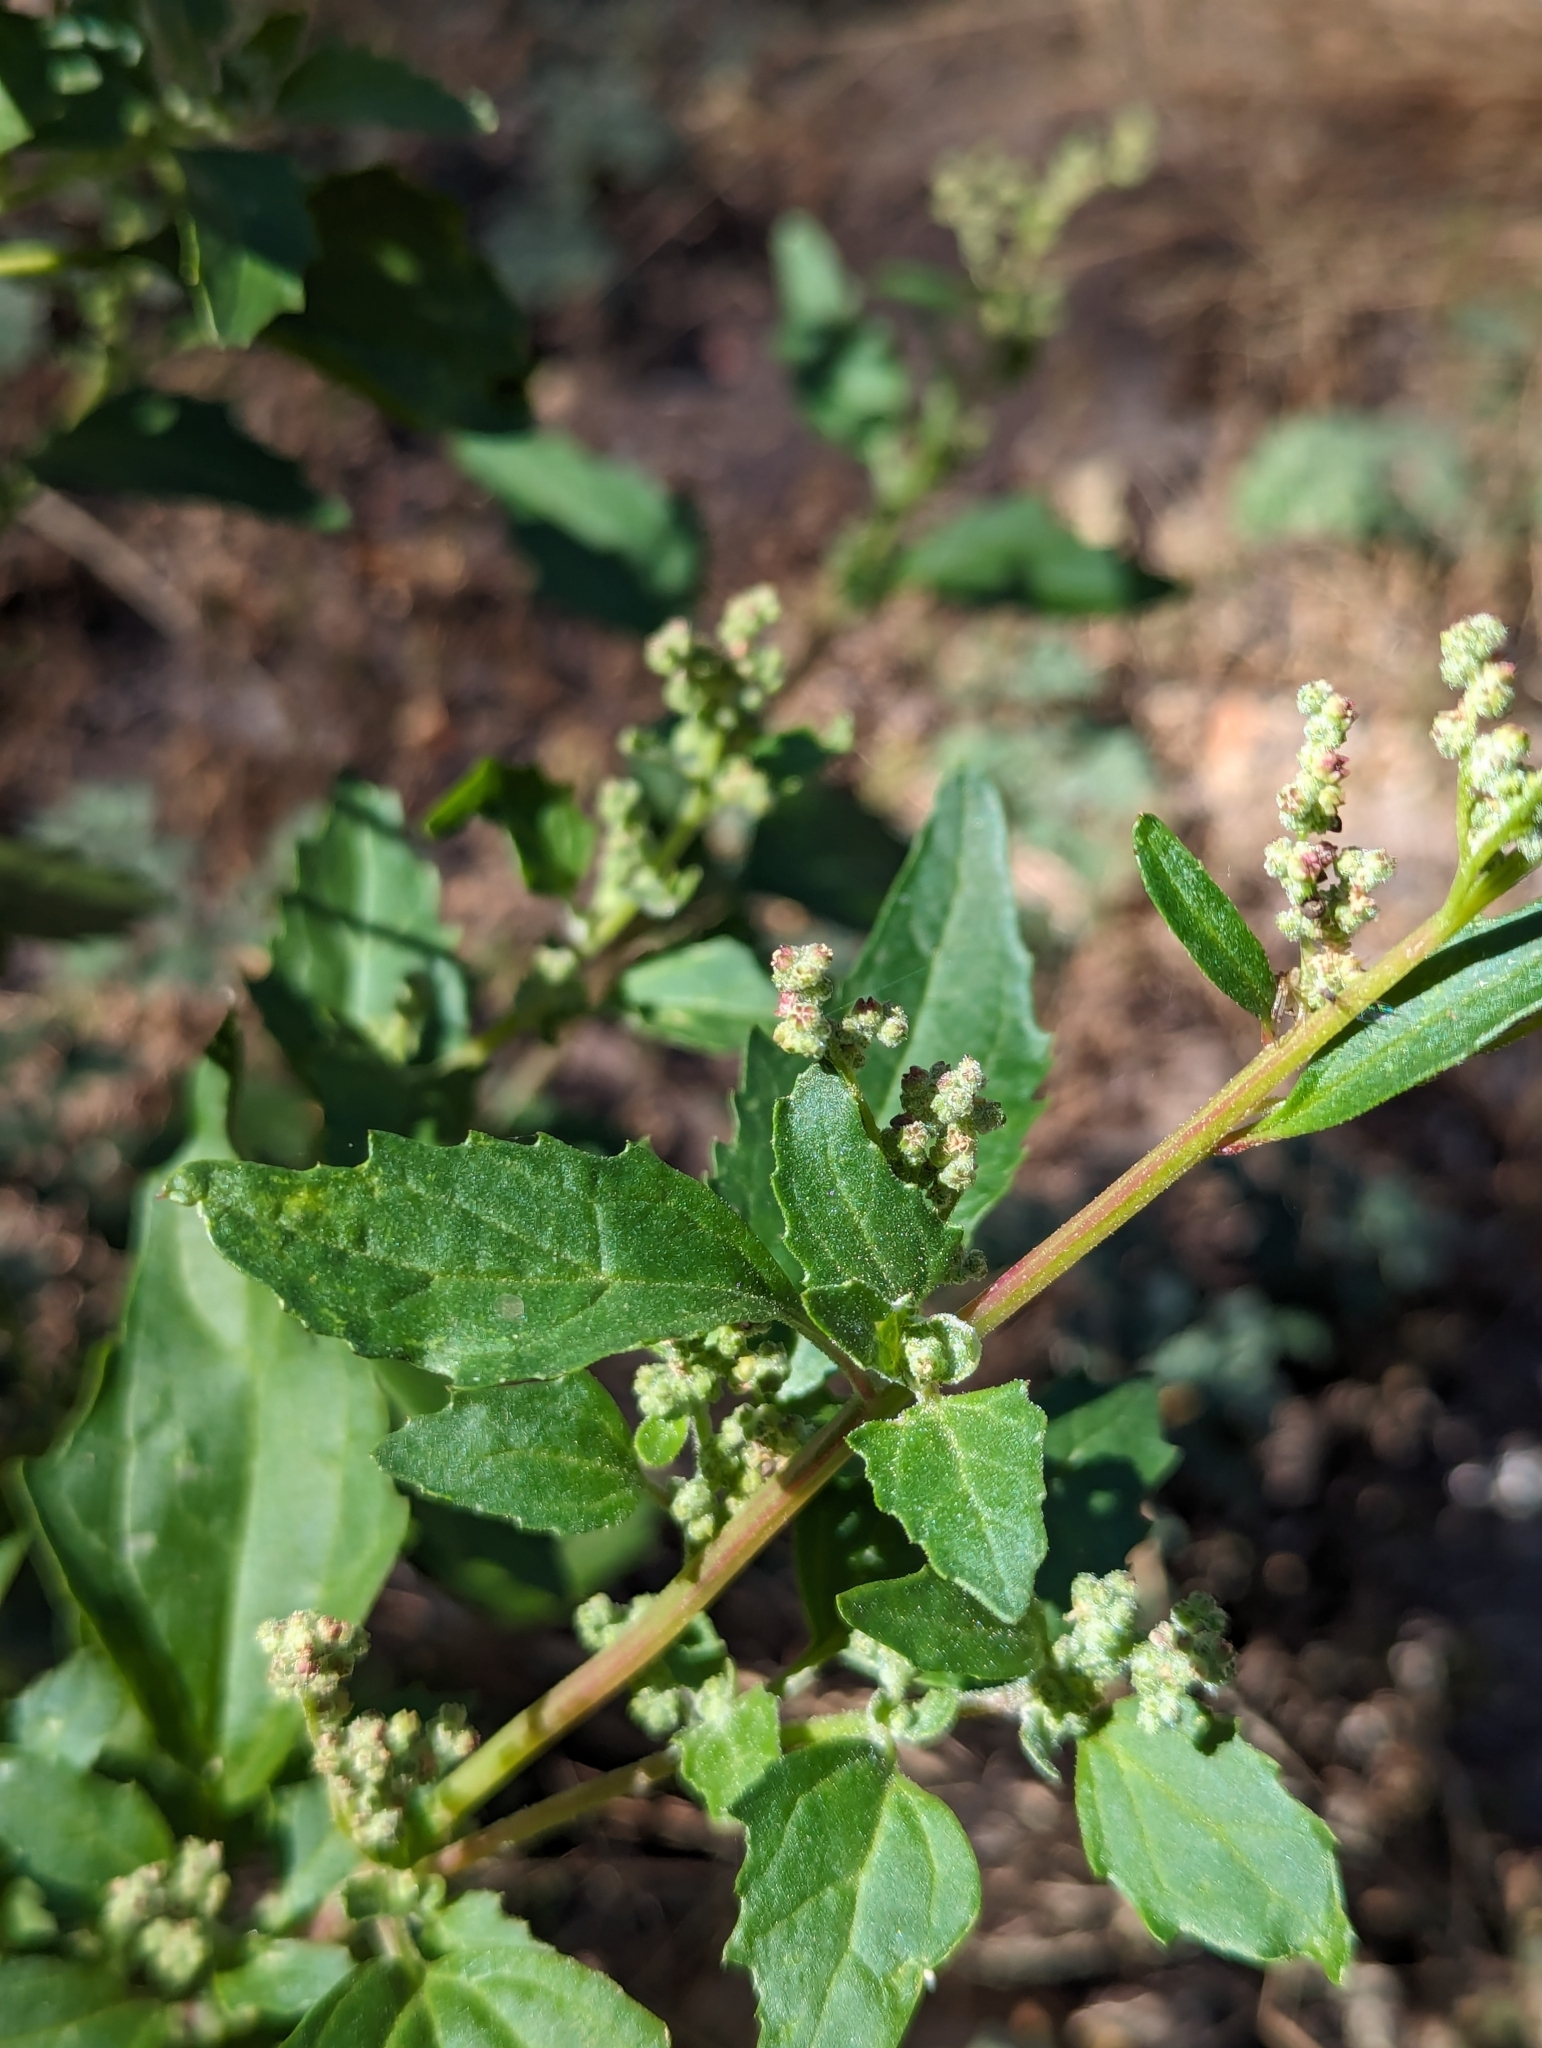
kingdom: Plantae
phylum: Tracheophyta
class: Magnoliopsida
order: Caryophyllales
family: Amaranthaceae
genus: Chenopodiastrum
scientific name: Chenopodiastrum murale
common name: Sowbane
